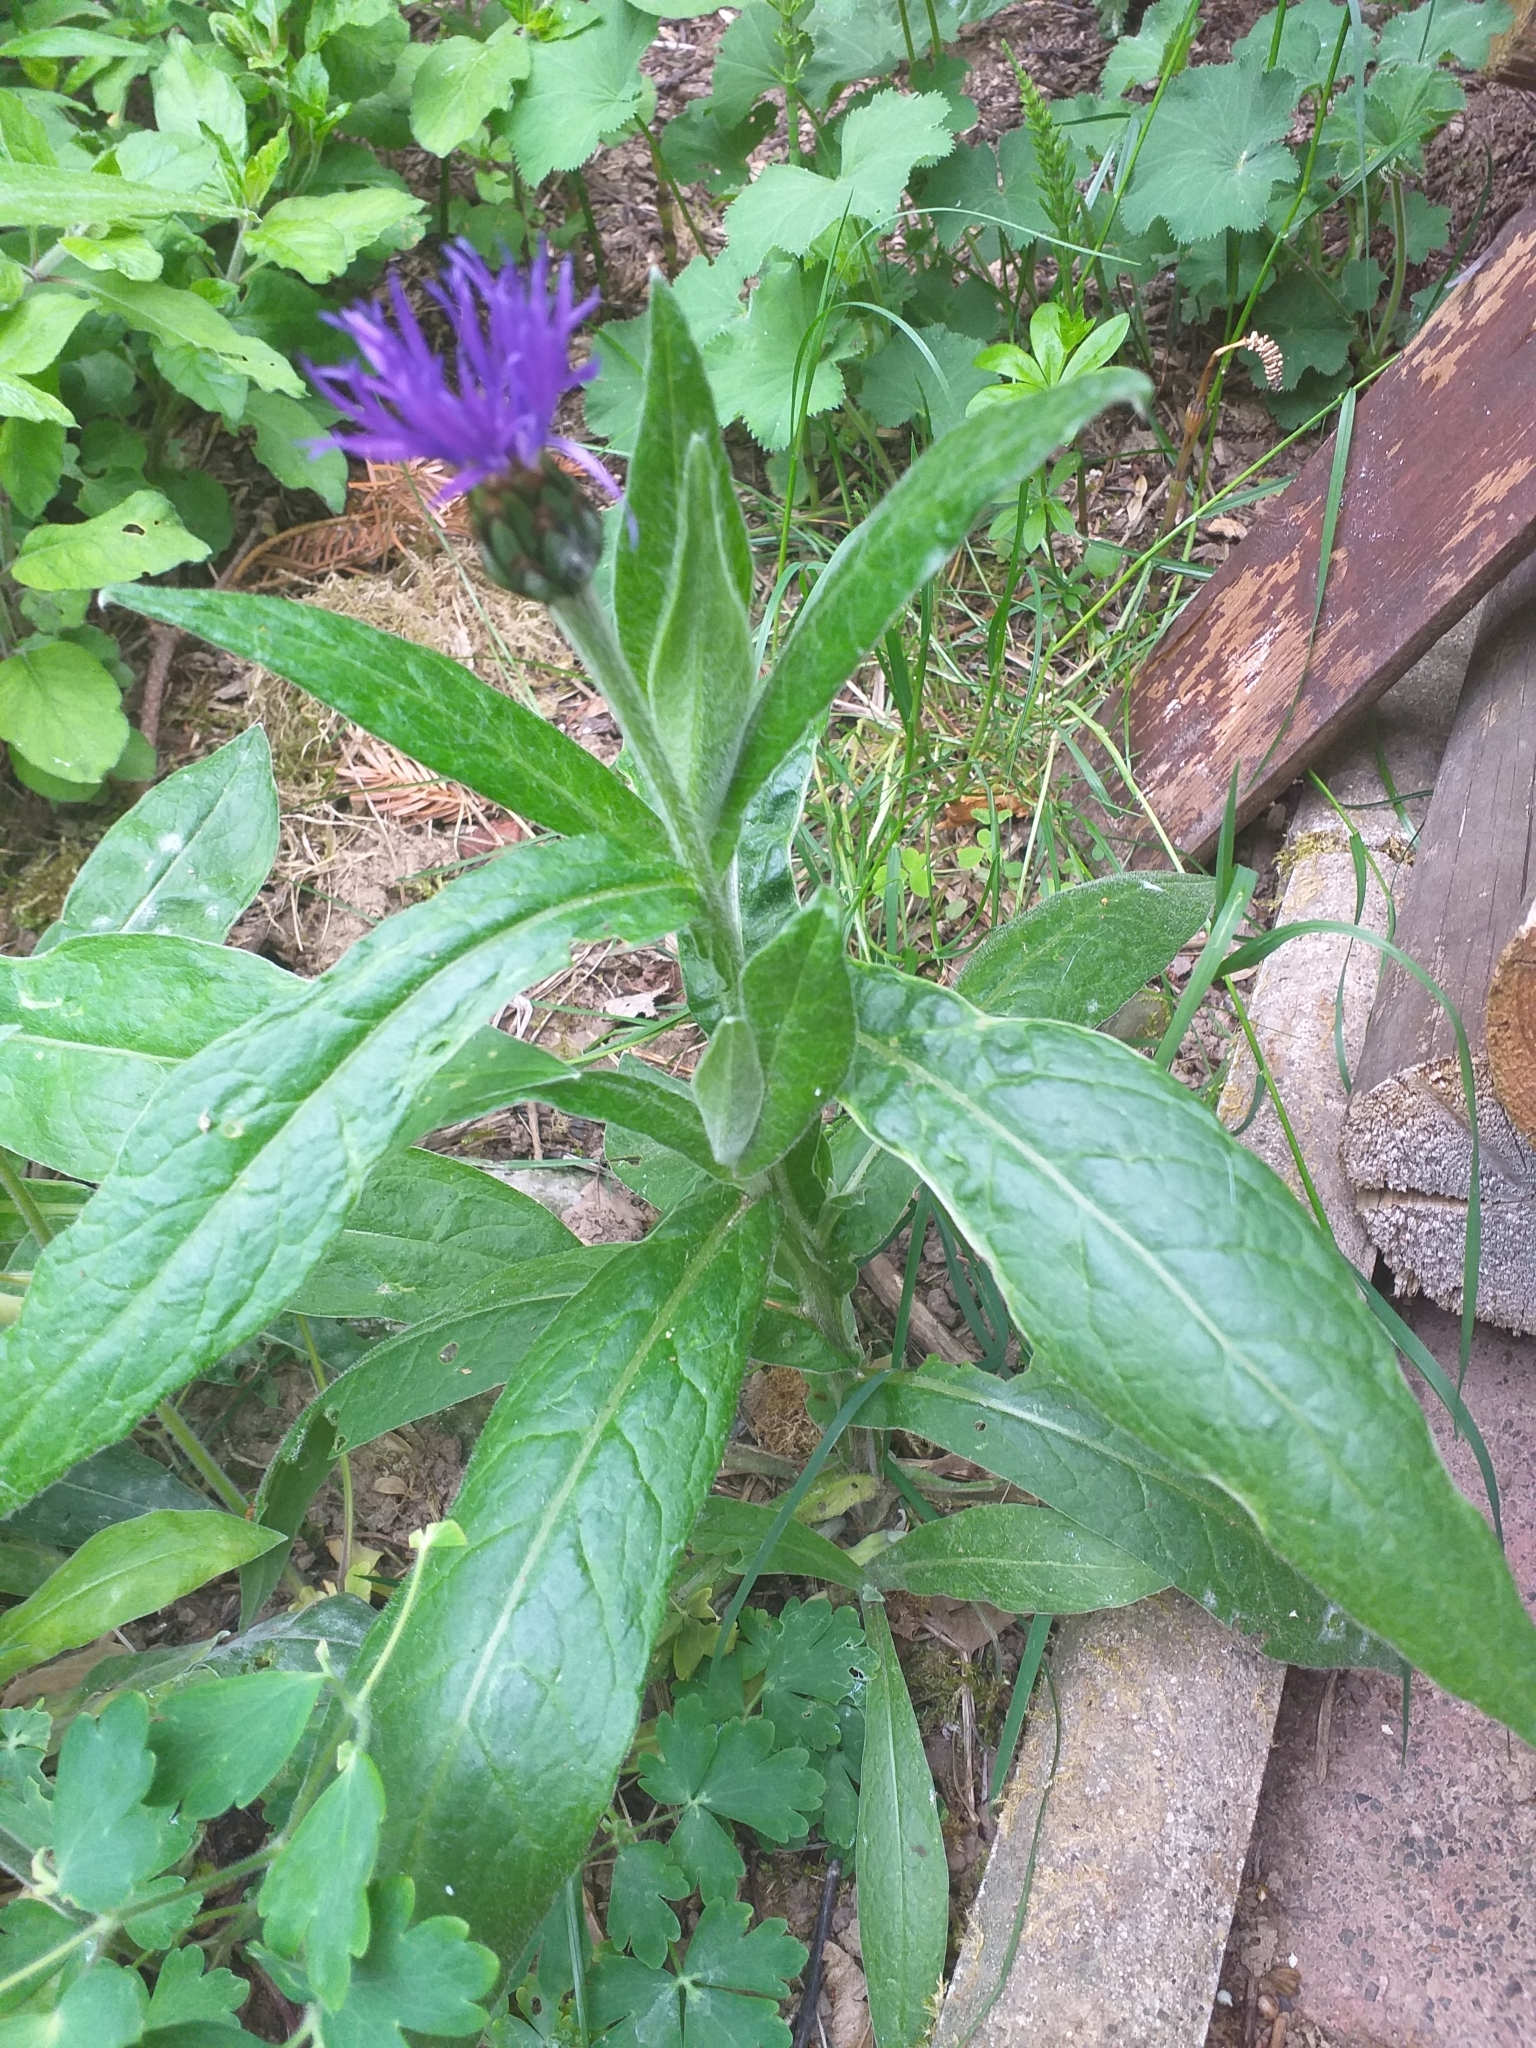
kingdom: Plantae
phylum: Tracheophyta
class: Magnoliopsida
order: Asterales
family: Asteraceae
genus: Centaurea
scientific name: Centaurea montana
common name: Perennial cornflower
